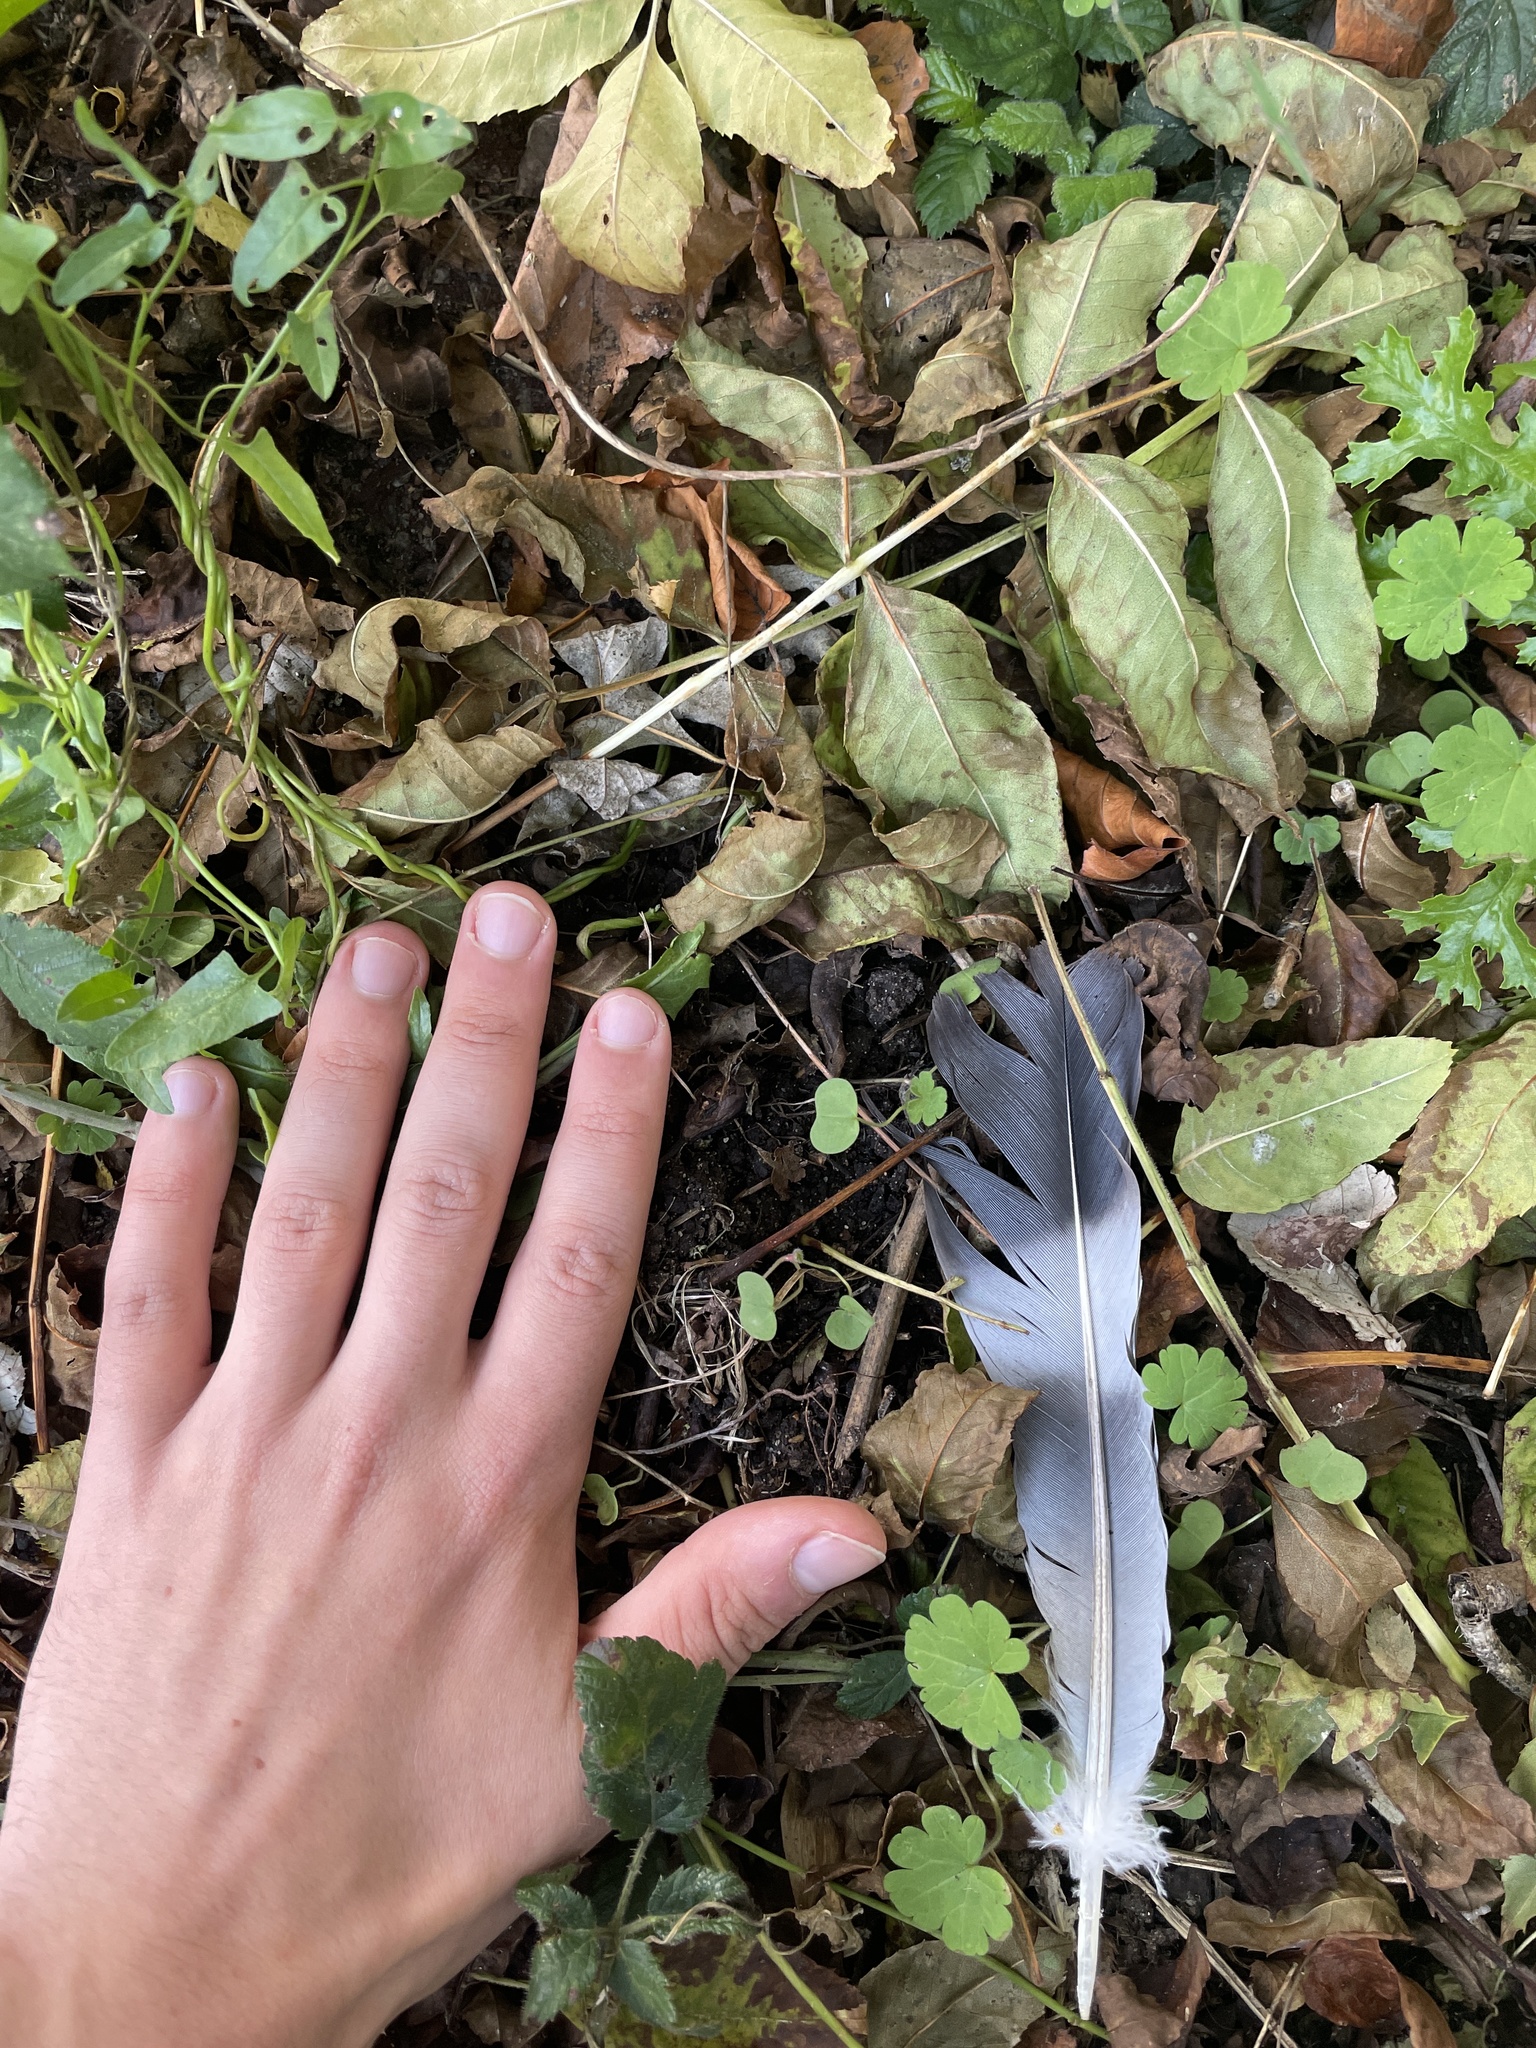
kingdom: Animalia
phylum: Chordata
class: Aves
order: Columbiformes
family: Columbidae
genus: Columba
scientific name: Columba palumbus
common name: Common wood pigeon
